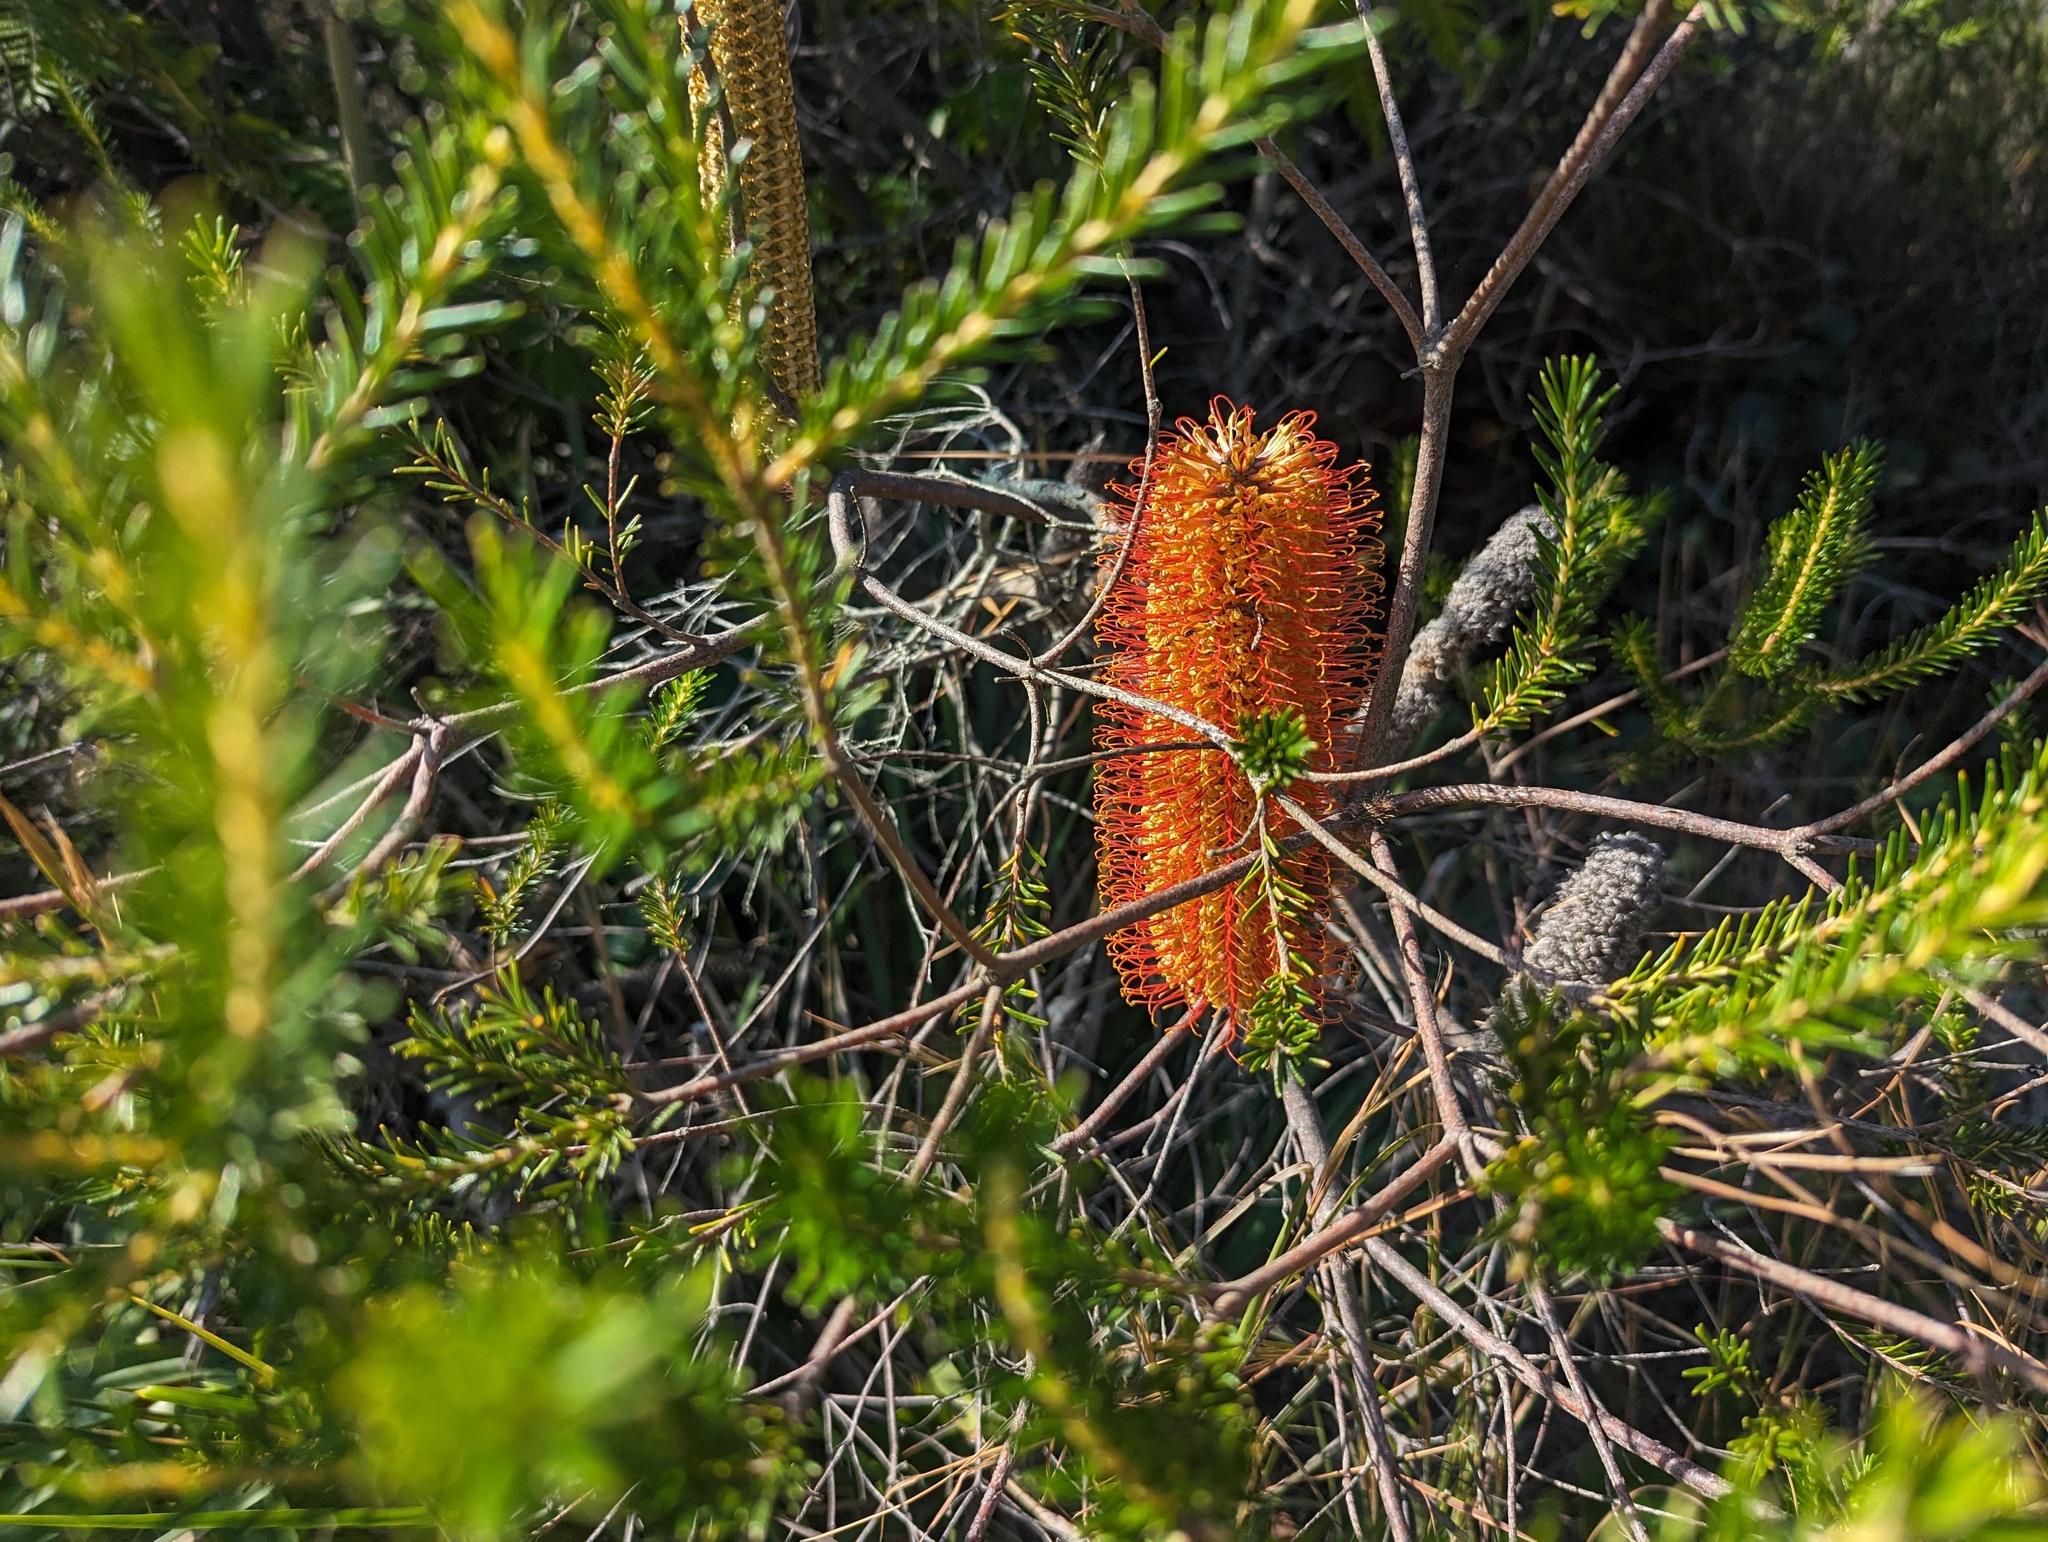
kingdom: Plantae
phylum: Tracheophyta
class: Magnoliopsida
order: Proteales
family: Proteaceae
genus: Banksia
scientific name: Banksia ericifolia
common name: Heath-leaf banksia
